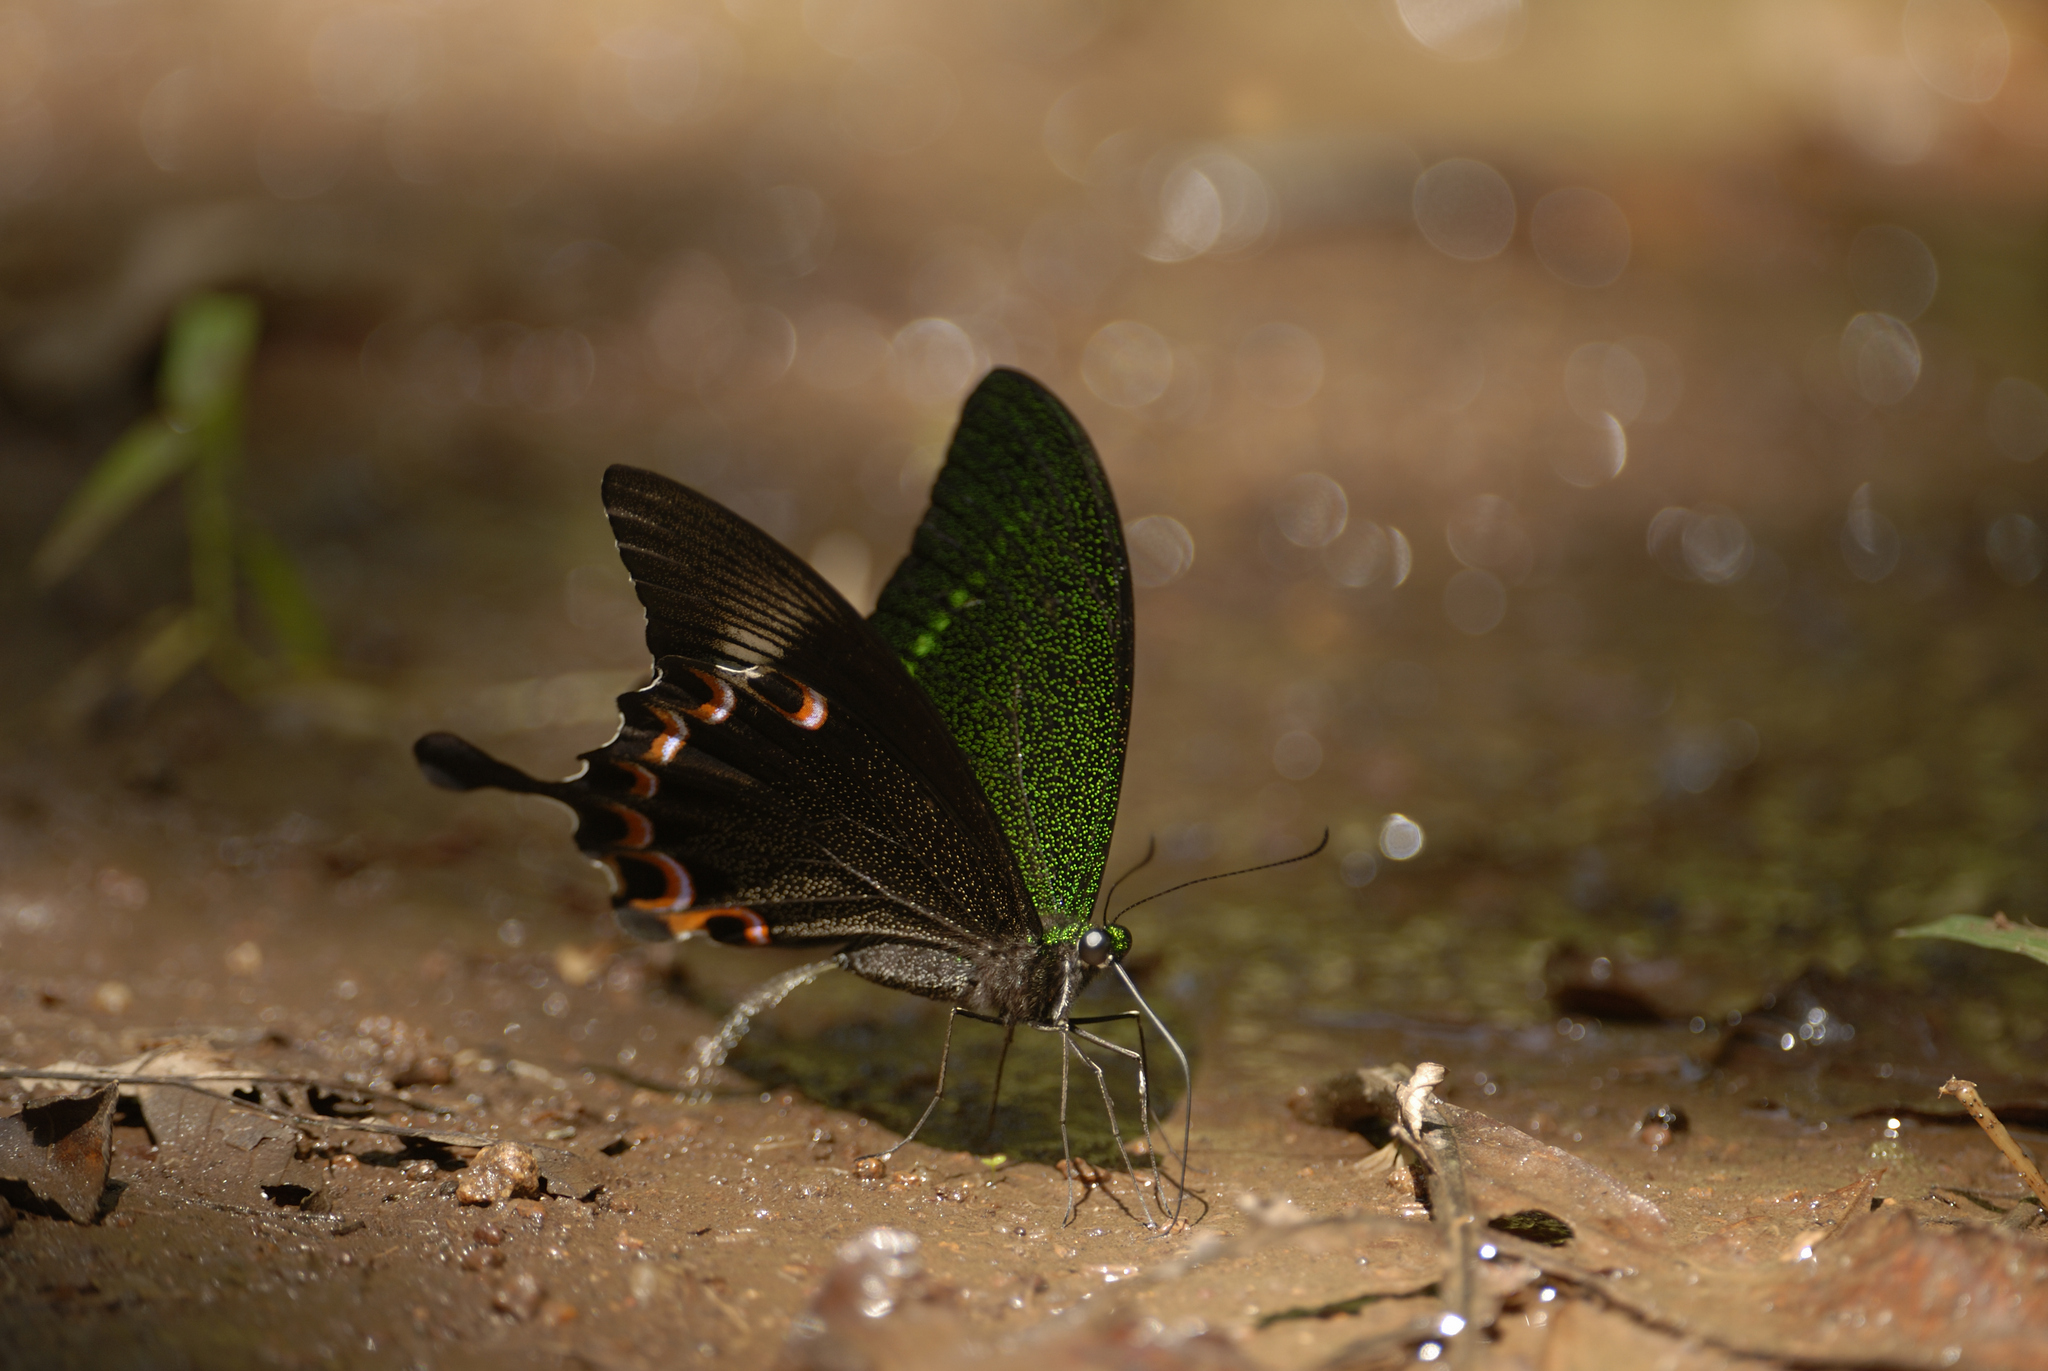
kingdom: Animalia
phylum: Arthropoda
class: Insecta
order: Lepidoptera
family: Papilionidae
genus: Papilio
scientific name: Papilio paris
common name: Paris peacock
